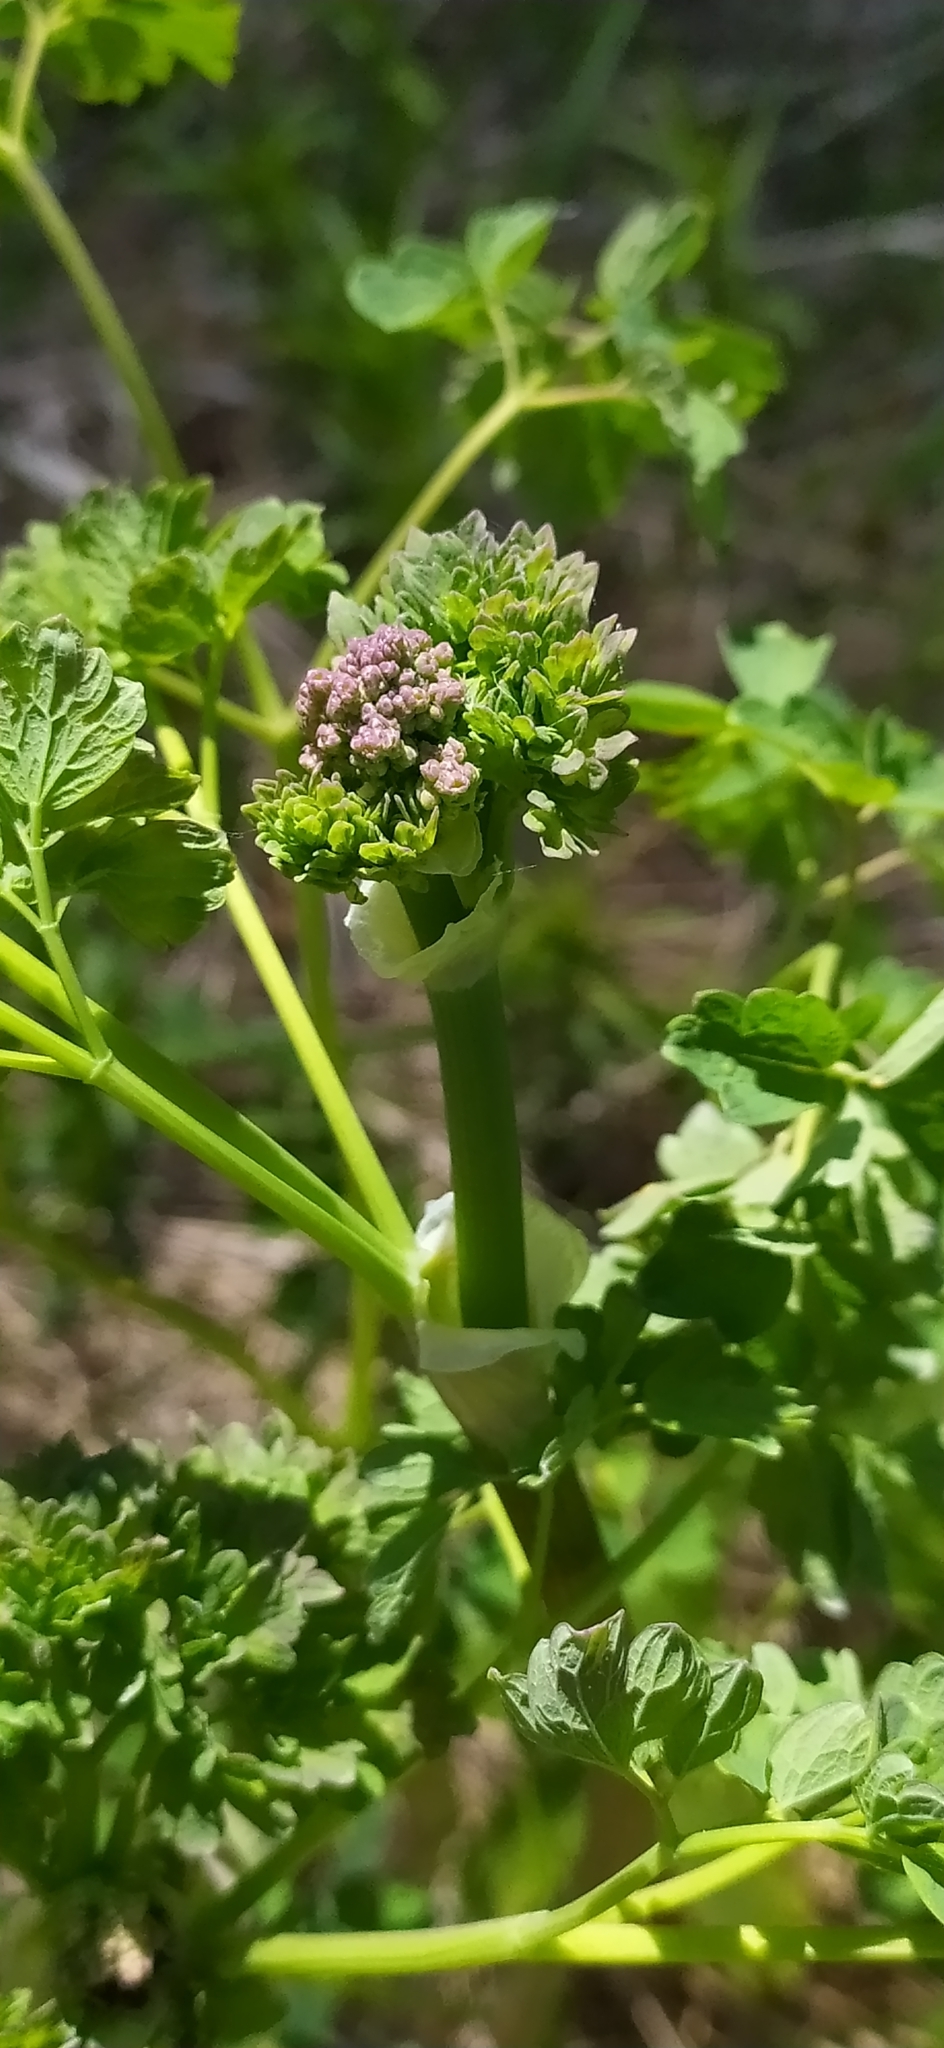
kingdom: Plantae
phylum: Tracheophyta
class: Magnoliopsida
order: Ranunculales
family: Ranunculaceae
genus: Thalictrum
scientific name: Thalictrum minus
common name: Lesser meadow-rue
